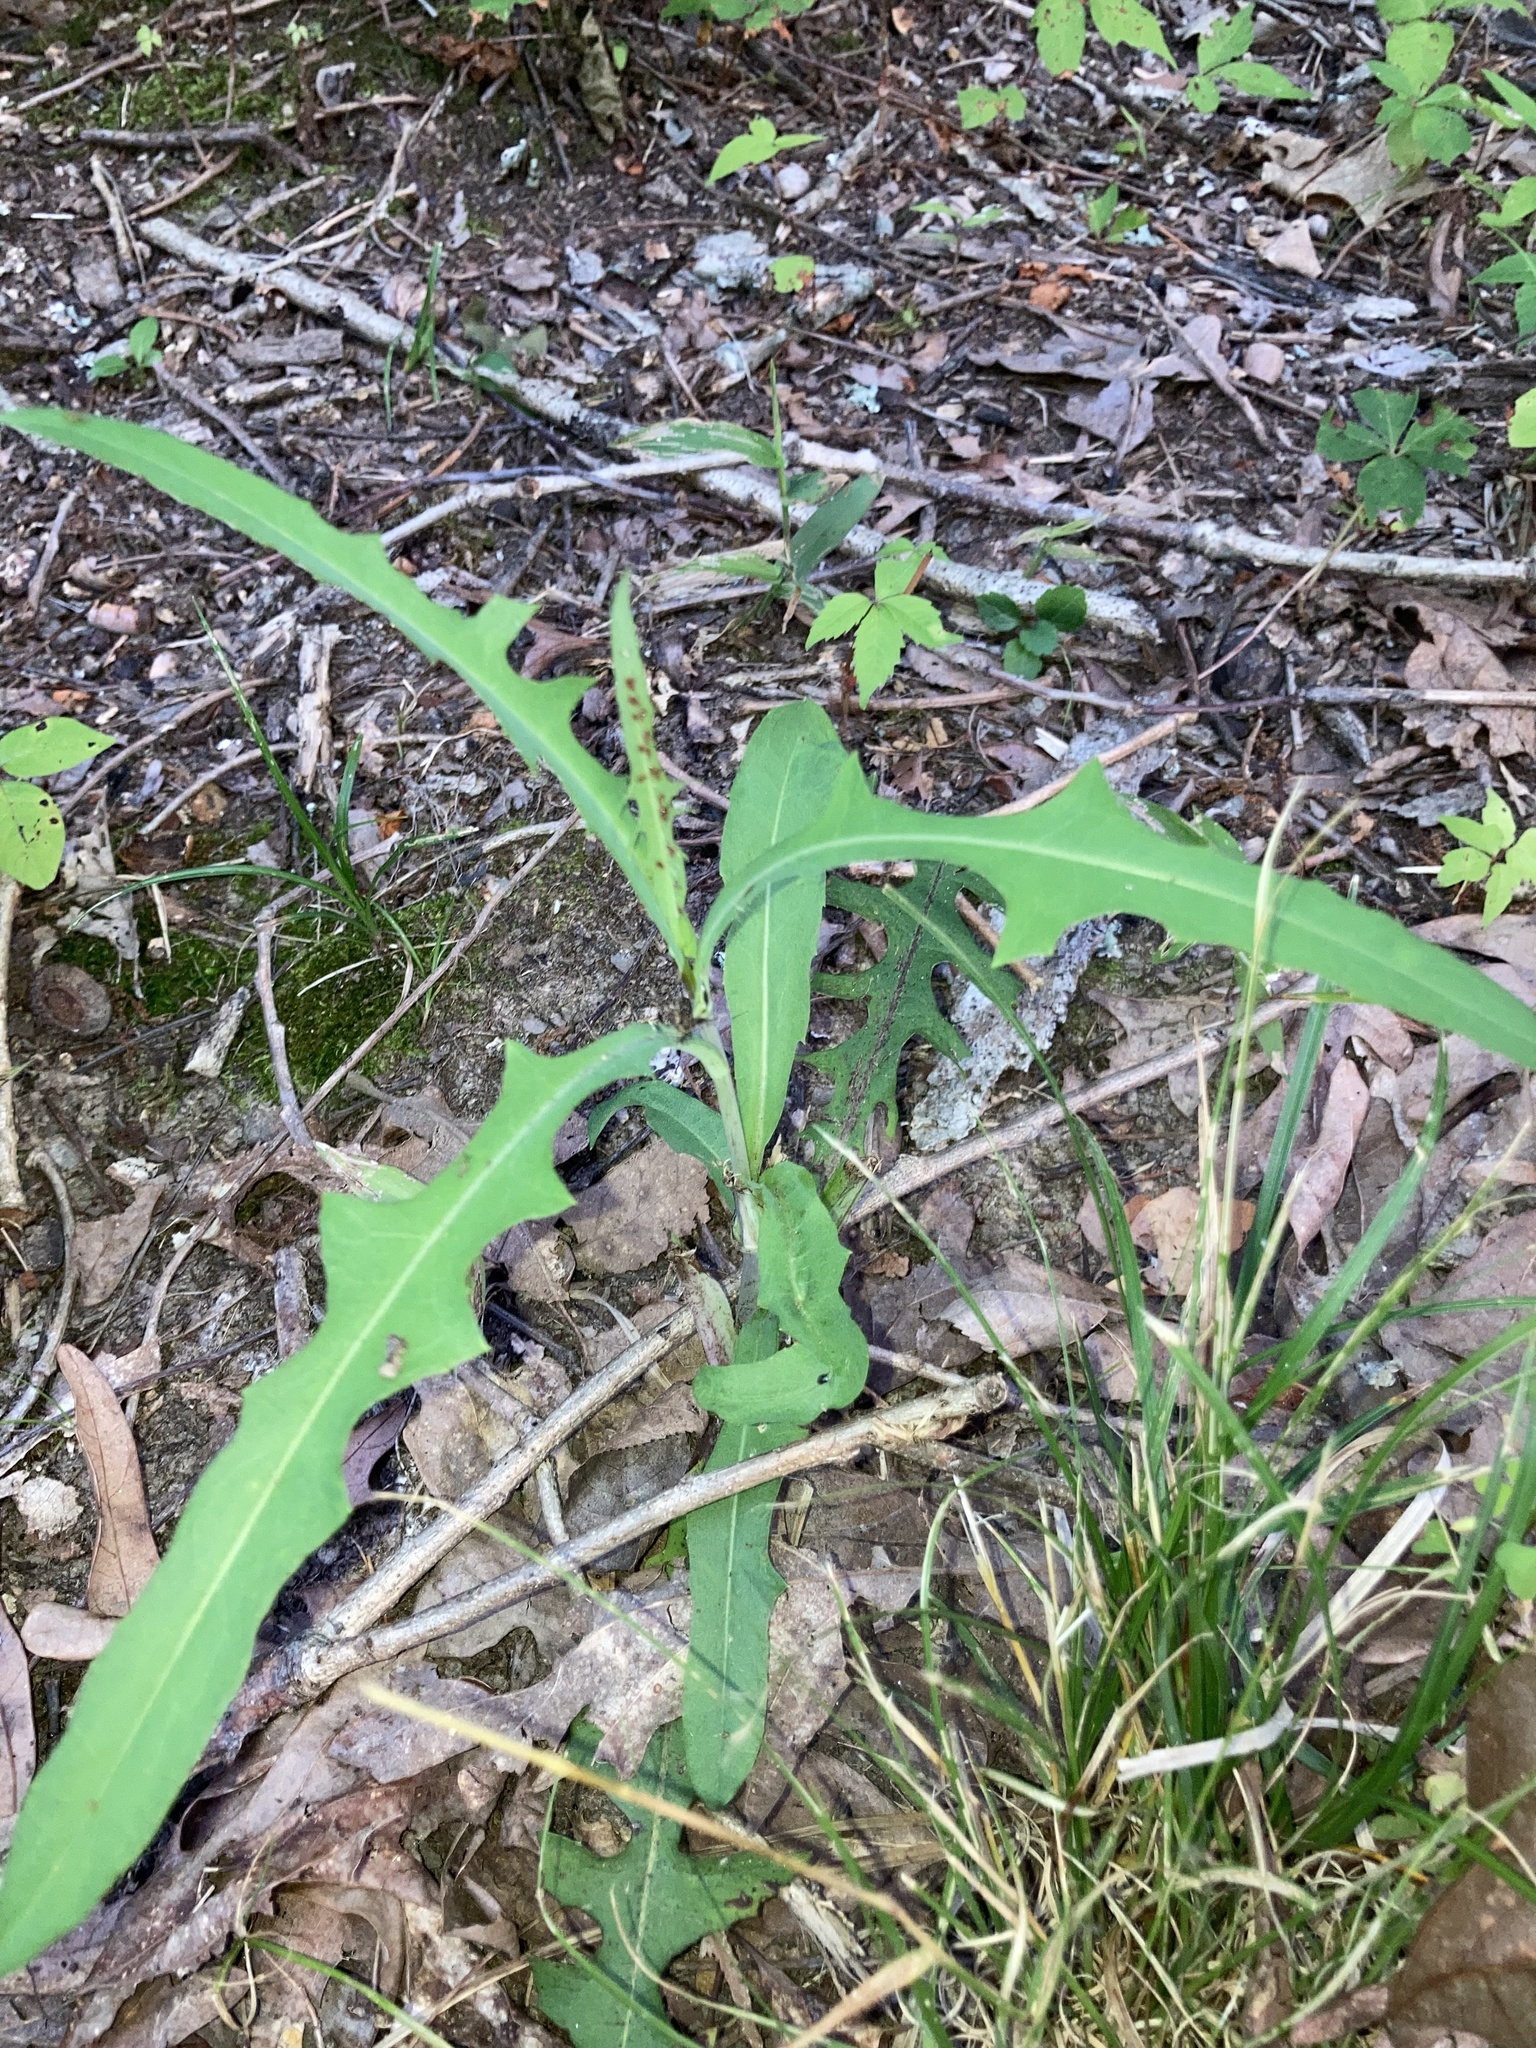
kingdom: Plantae
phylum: Tracheophyta
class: Magnoliopsida
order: Asterales
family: Asteraceae
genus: Lactuca
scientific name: Lactuca canadensis
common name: Canada lettuce
